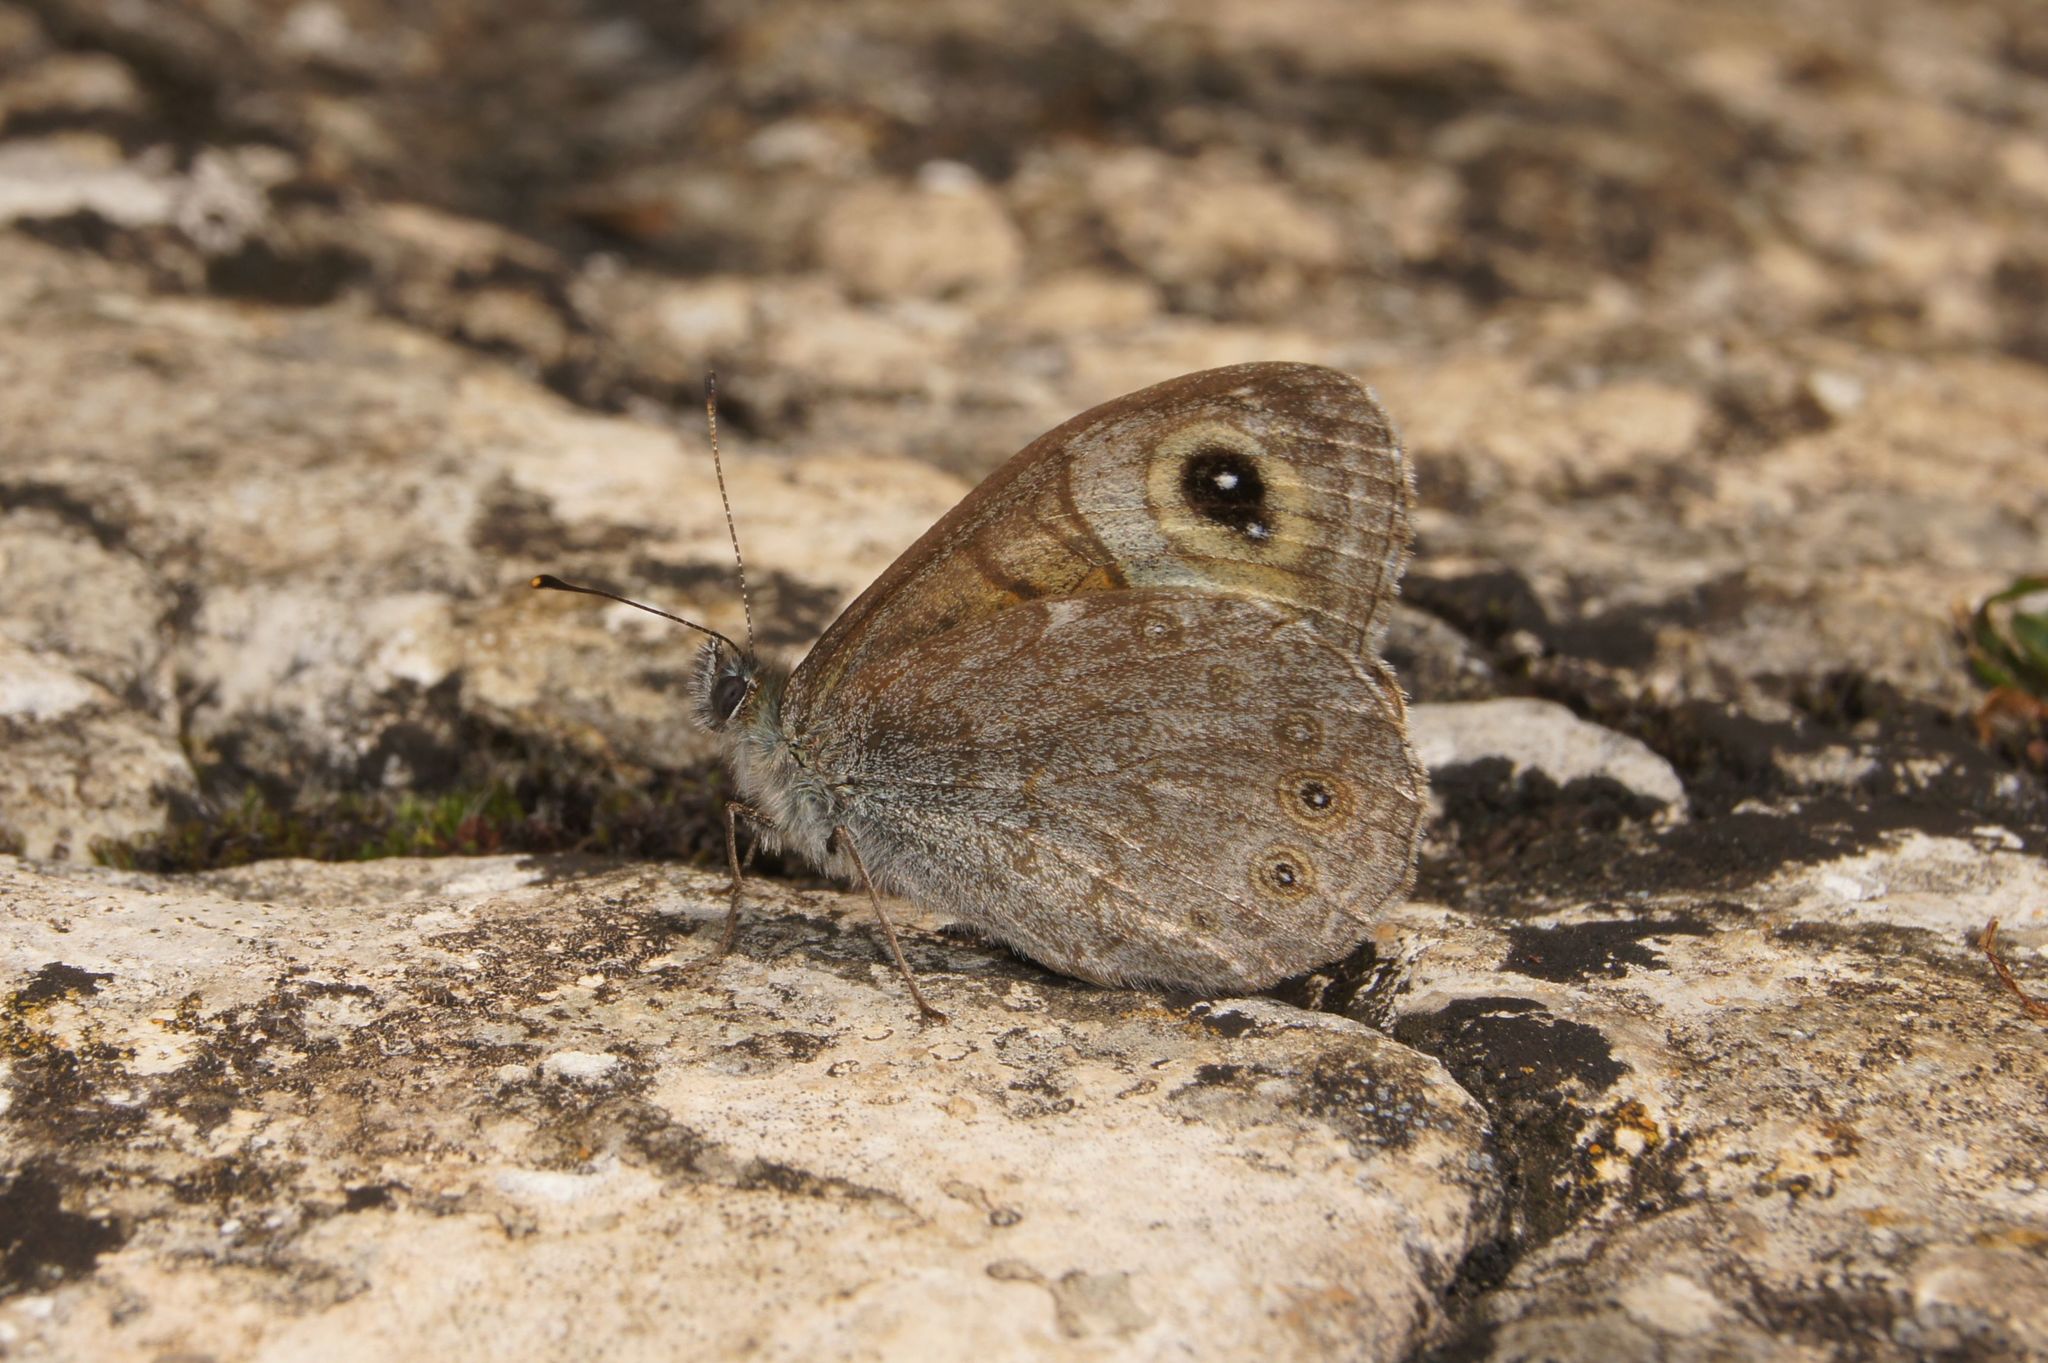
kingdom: Animalia
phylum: Arthropoda
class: Insecta
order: Lepidoptera
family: Nymphalidae
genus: Pararge
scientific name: Pararge Lasiommata maera
